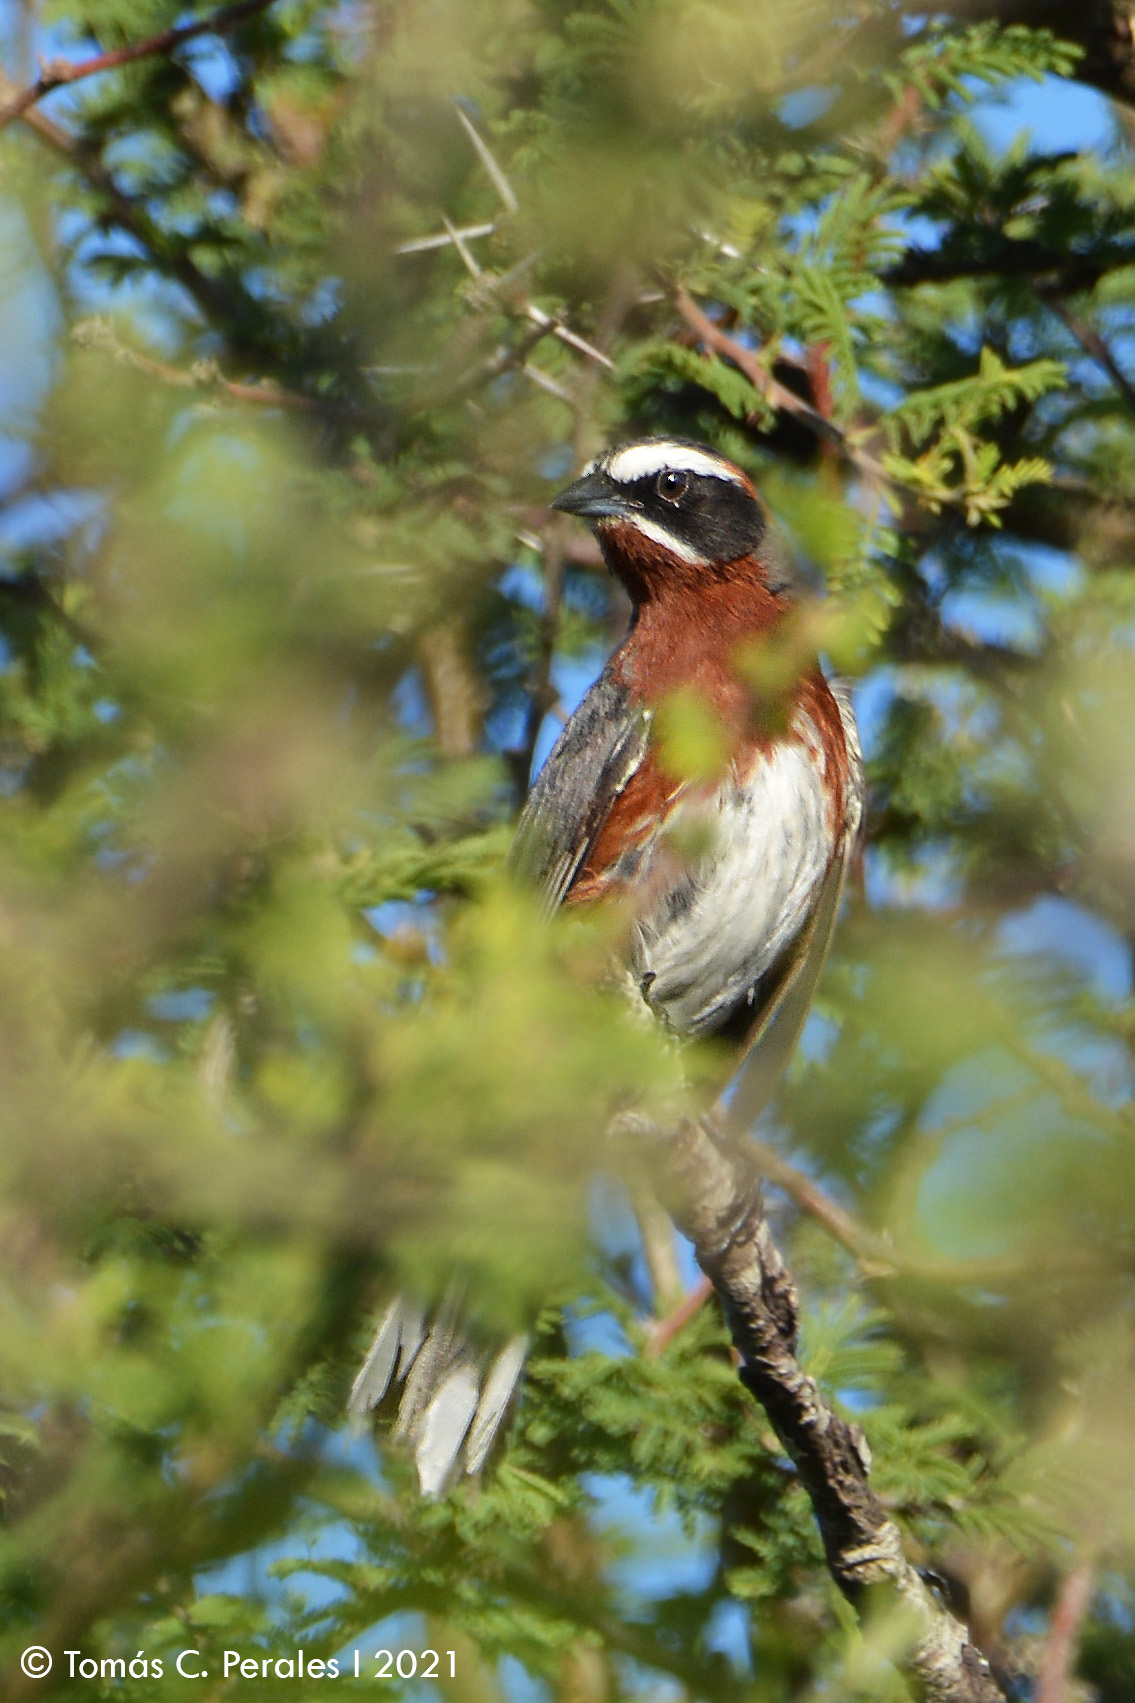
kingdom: Animalia
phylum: Chordata
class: Aves
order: Passeriformes
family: Thraupidae
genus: Poospiza
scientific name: Poospiza whitii
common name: Black-and-chestnut warbling finch
